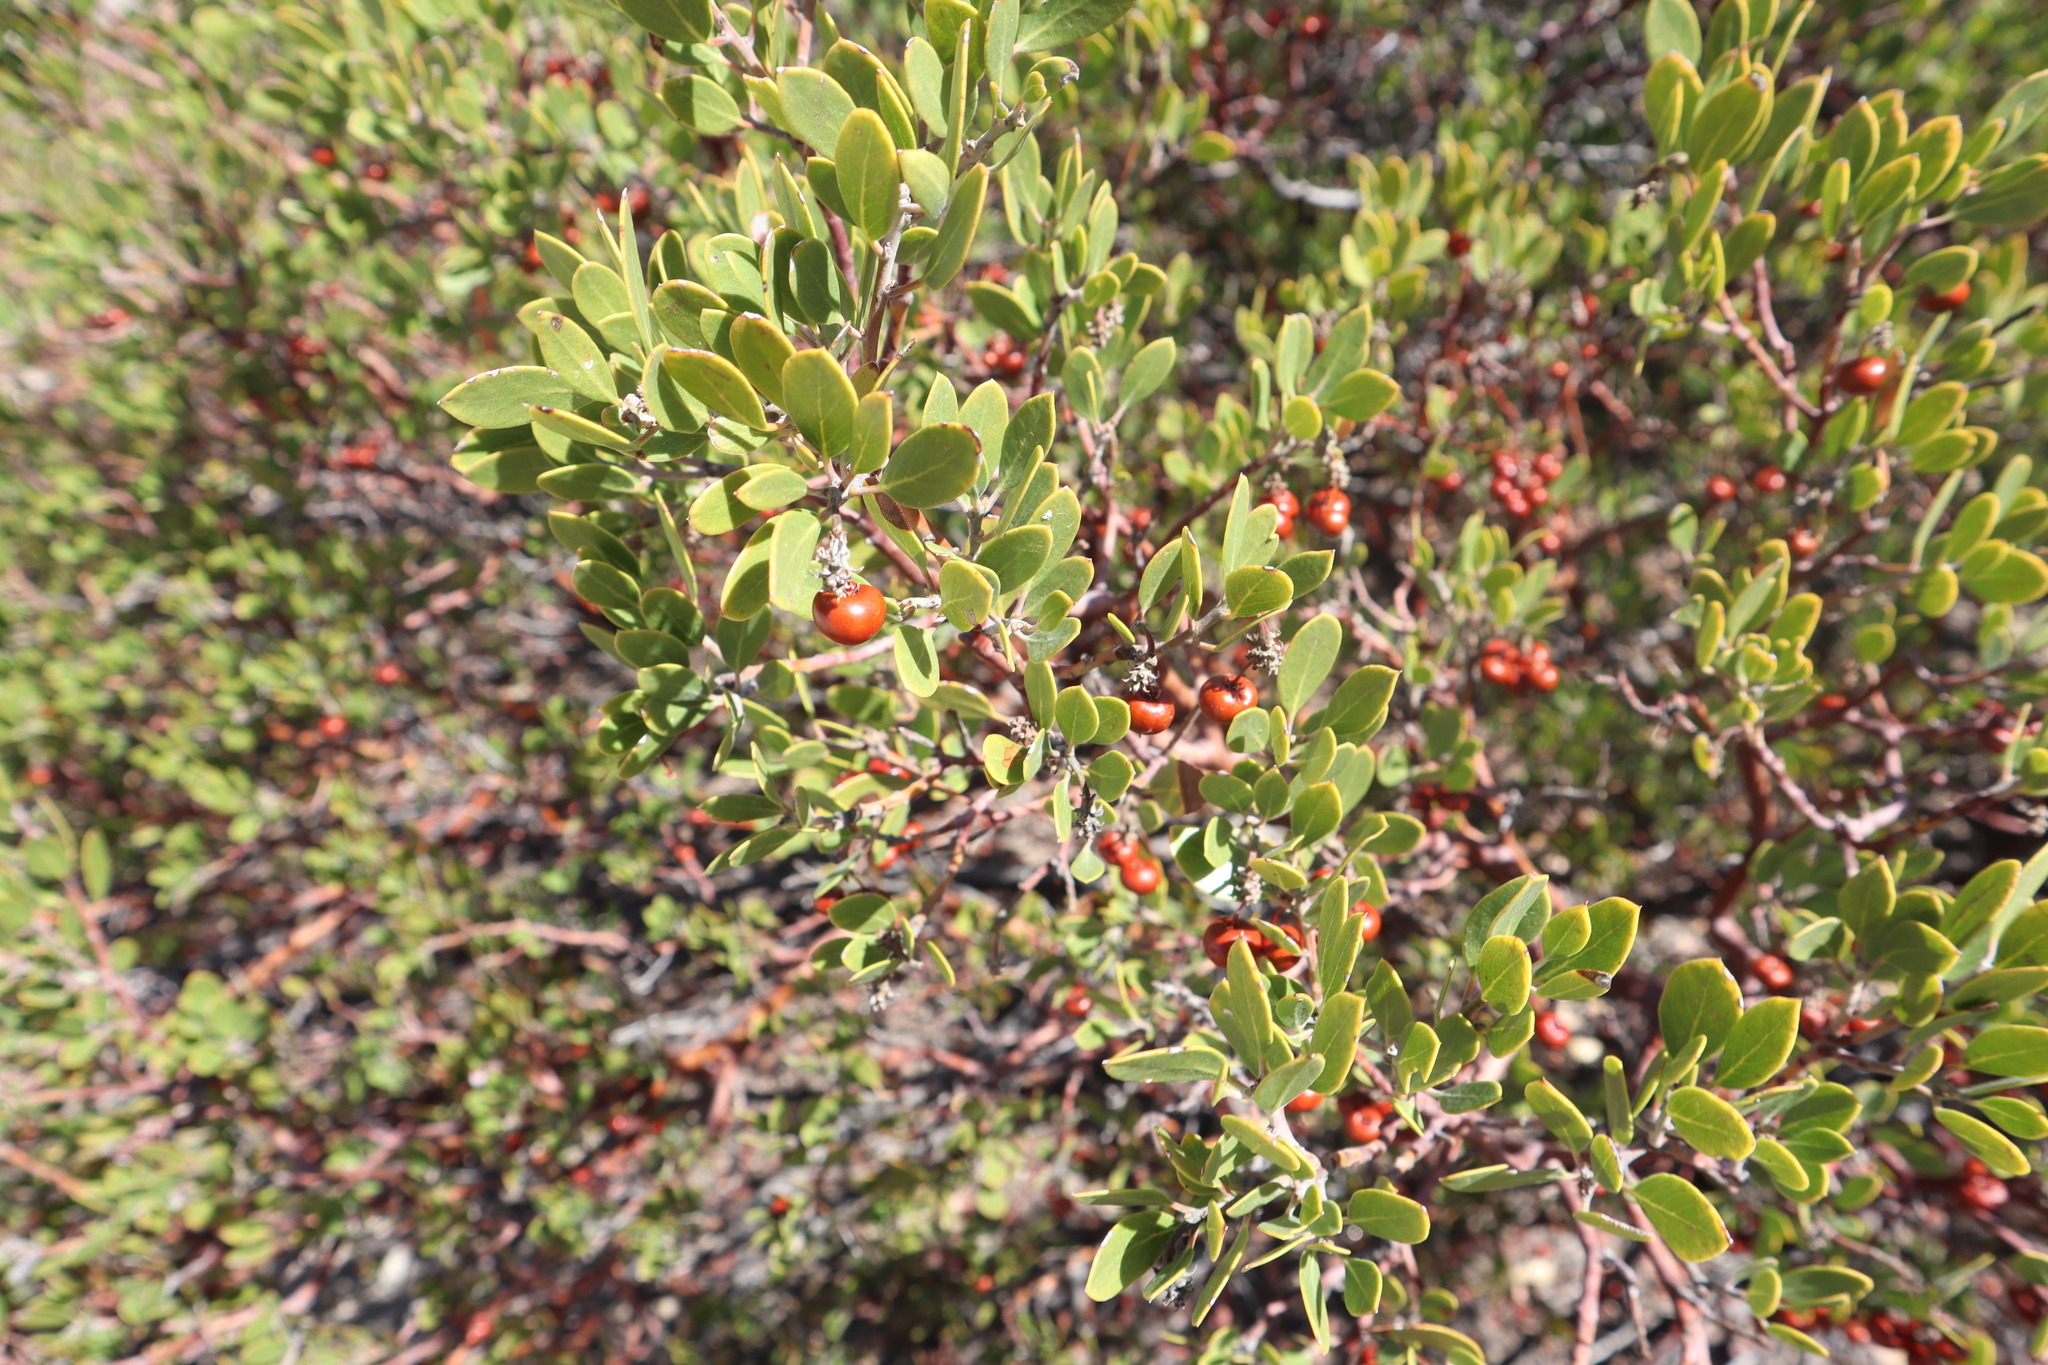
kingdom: Plantae
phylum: Tracheophyta
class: Magnoliopsida
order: Ericales
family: Ericaceae
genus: Arctostaphylos
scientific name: Arctostaphylos pungens
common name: Mexican manzanita
